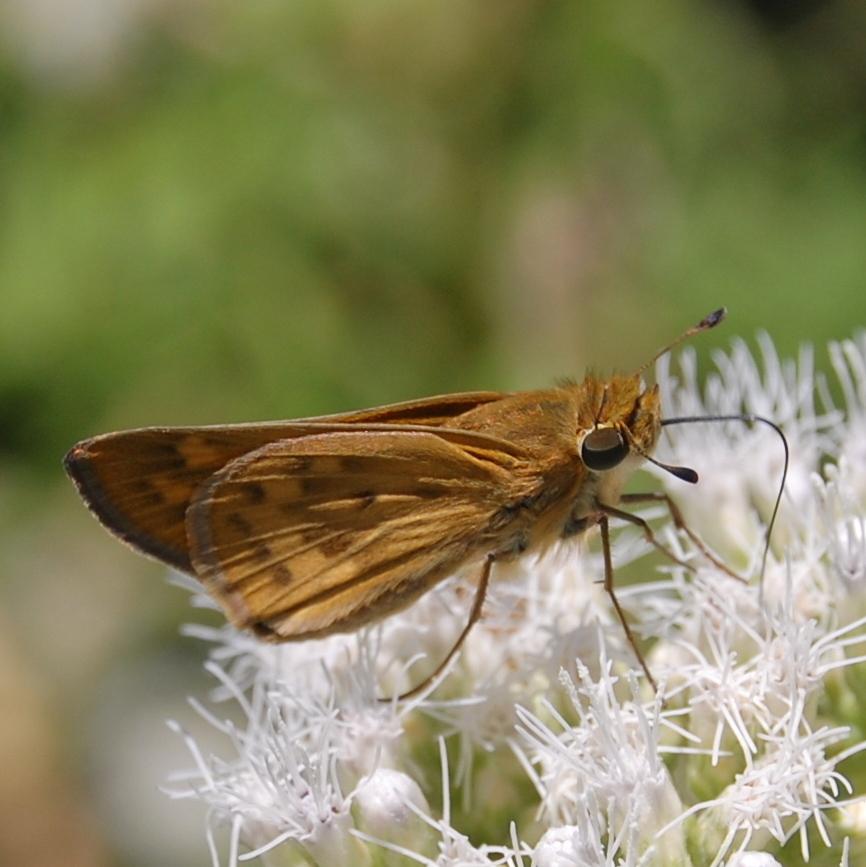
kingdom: Animalia
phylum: Arthropoda
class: Insecta
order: Lepidoptera
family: Hesperiidae
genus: Hylephila
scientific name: Hylephila phyleus
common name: Fiery skipper
